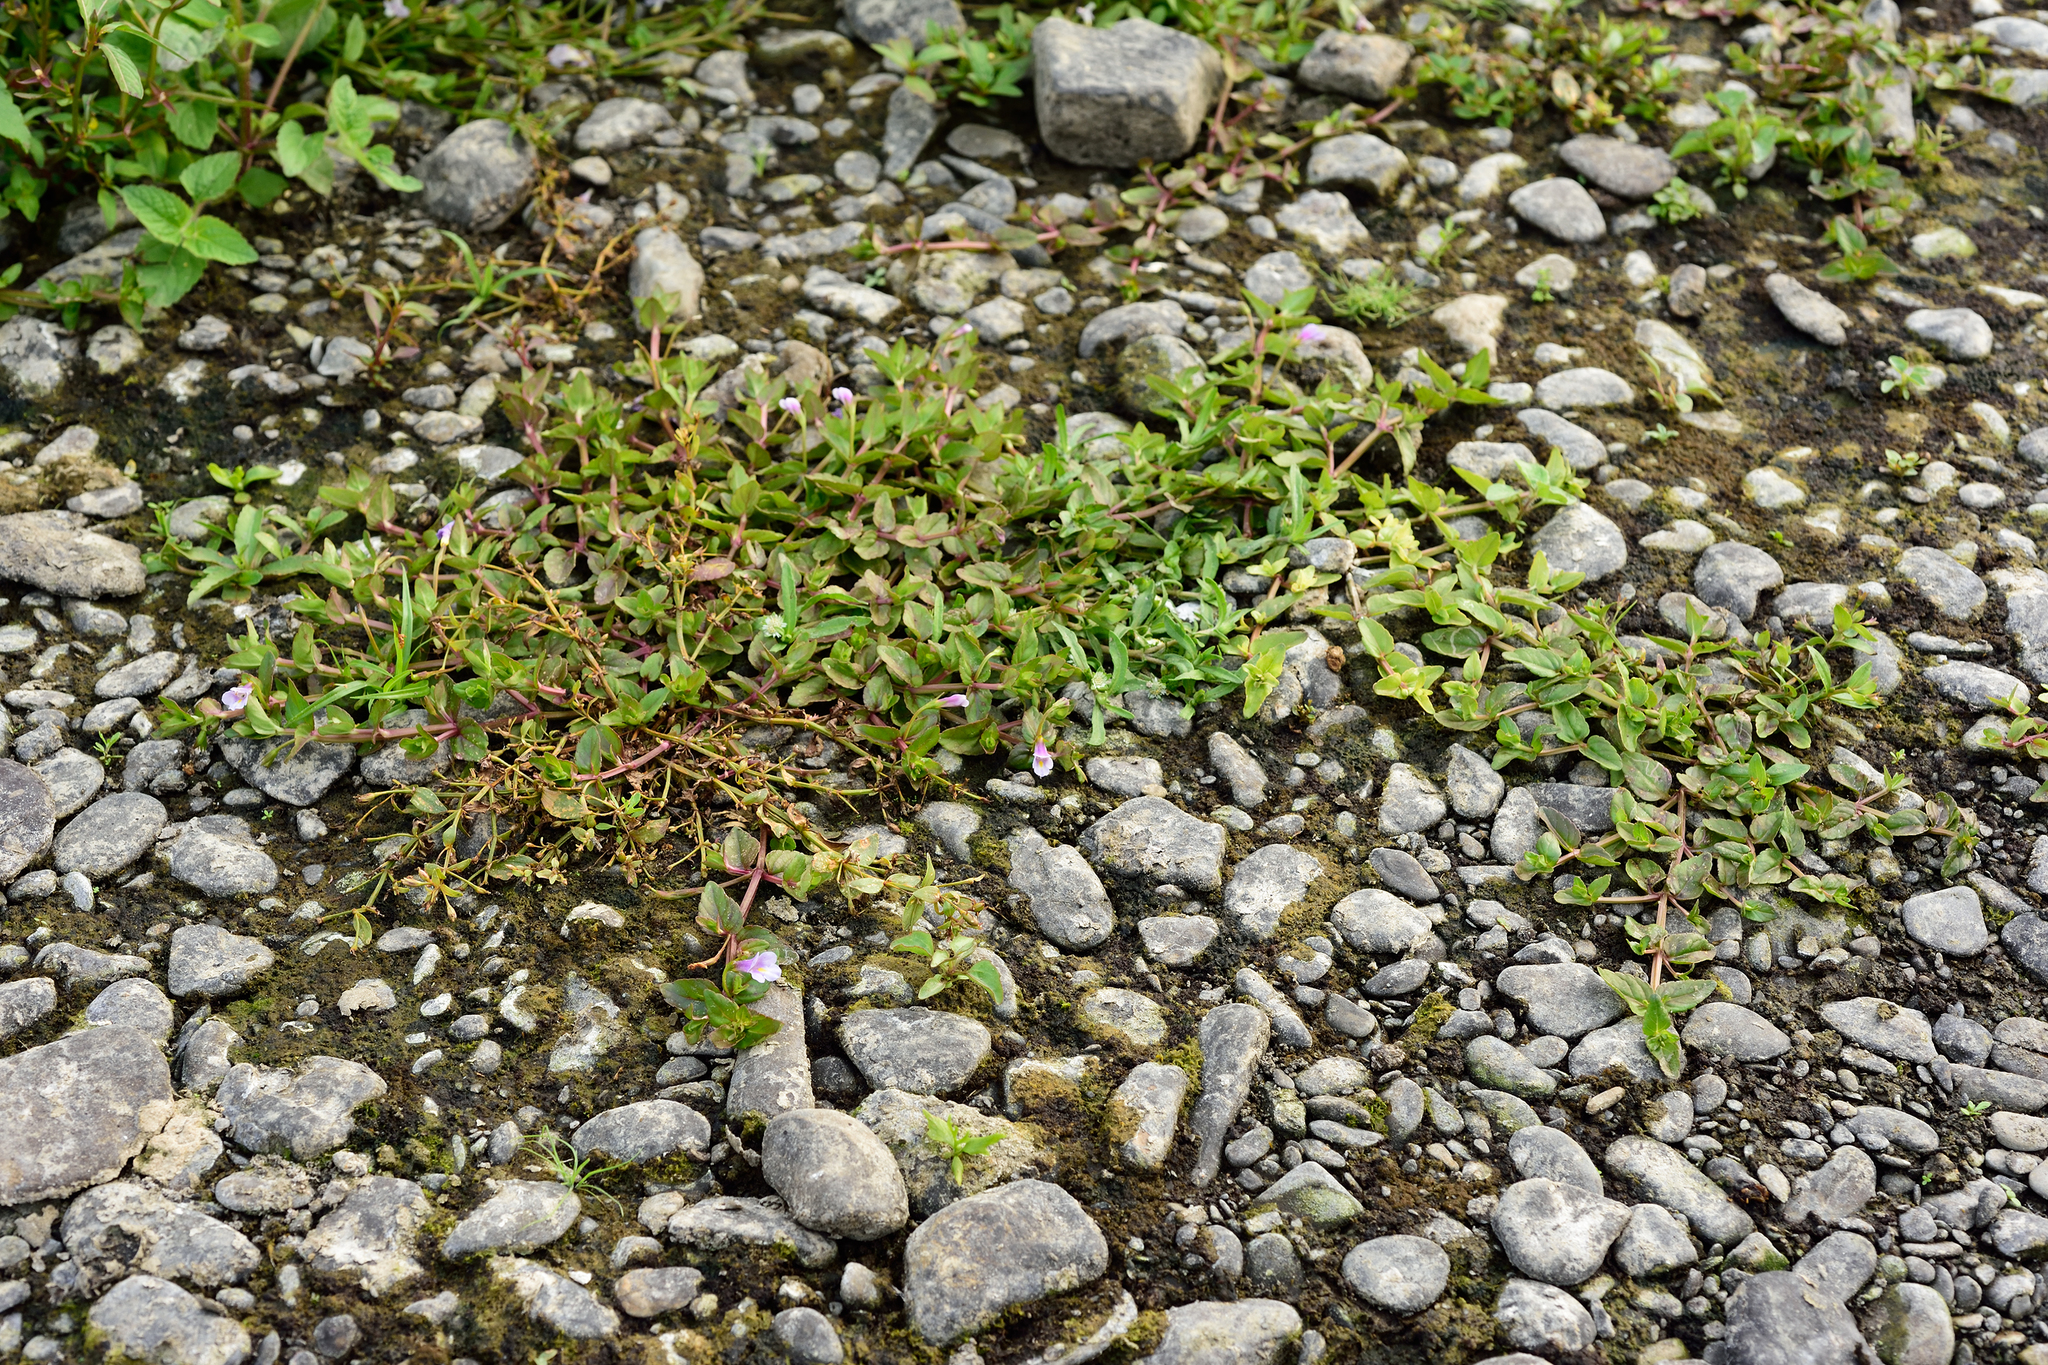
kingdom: Plantae
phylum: Tracheophyta
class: Magnoliopsida
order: Lamiales
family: Linderniaceae
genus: Torenia
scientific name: Torenia anagallis
